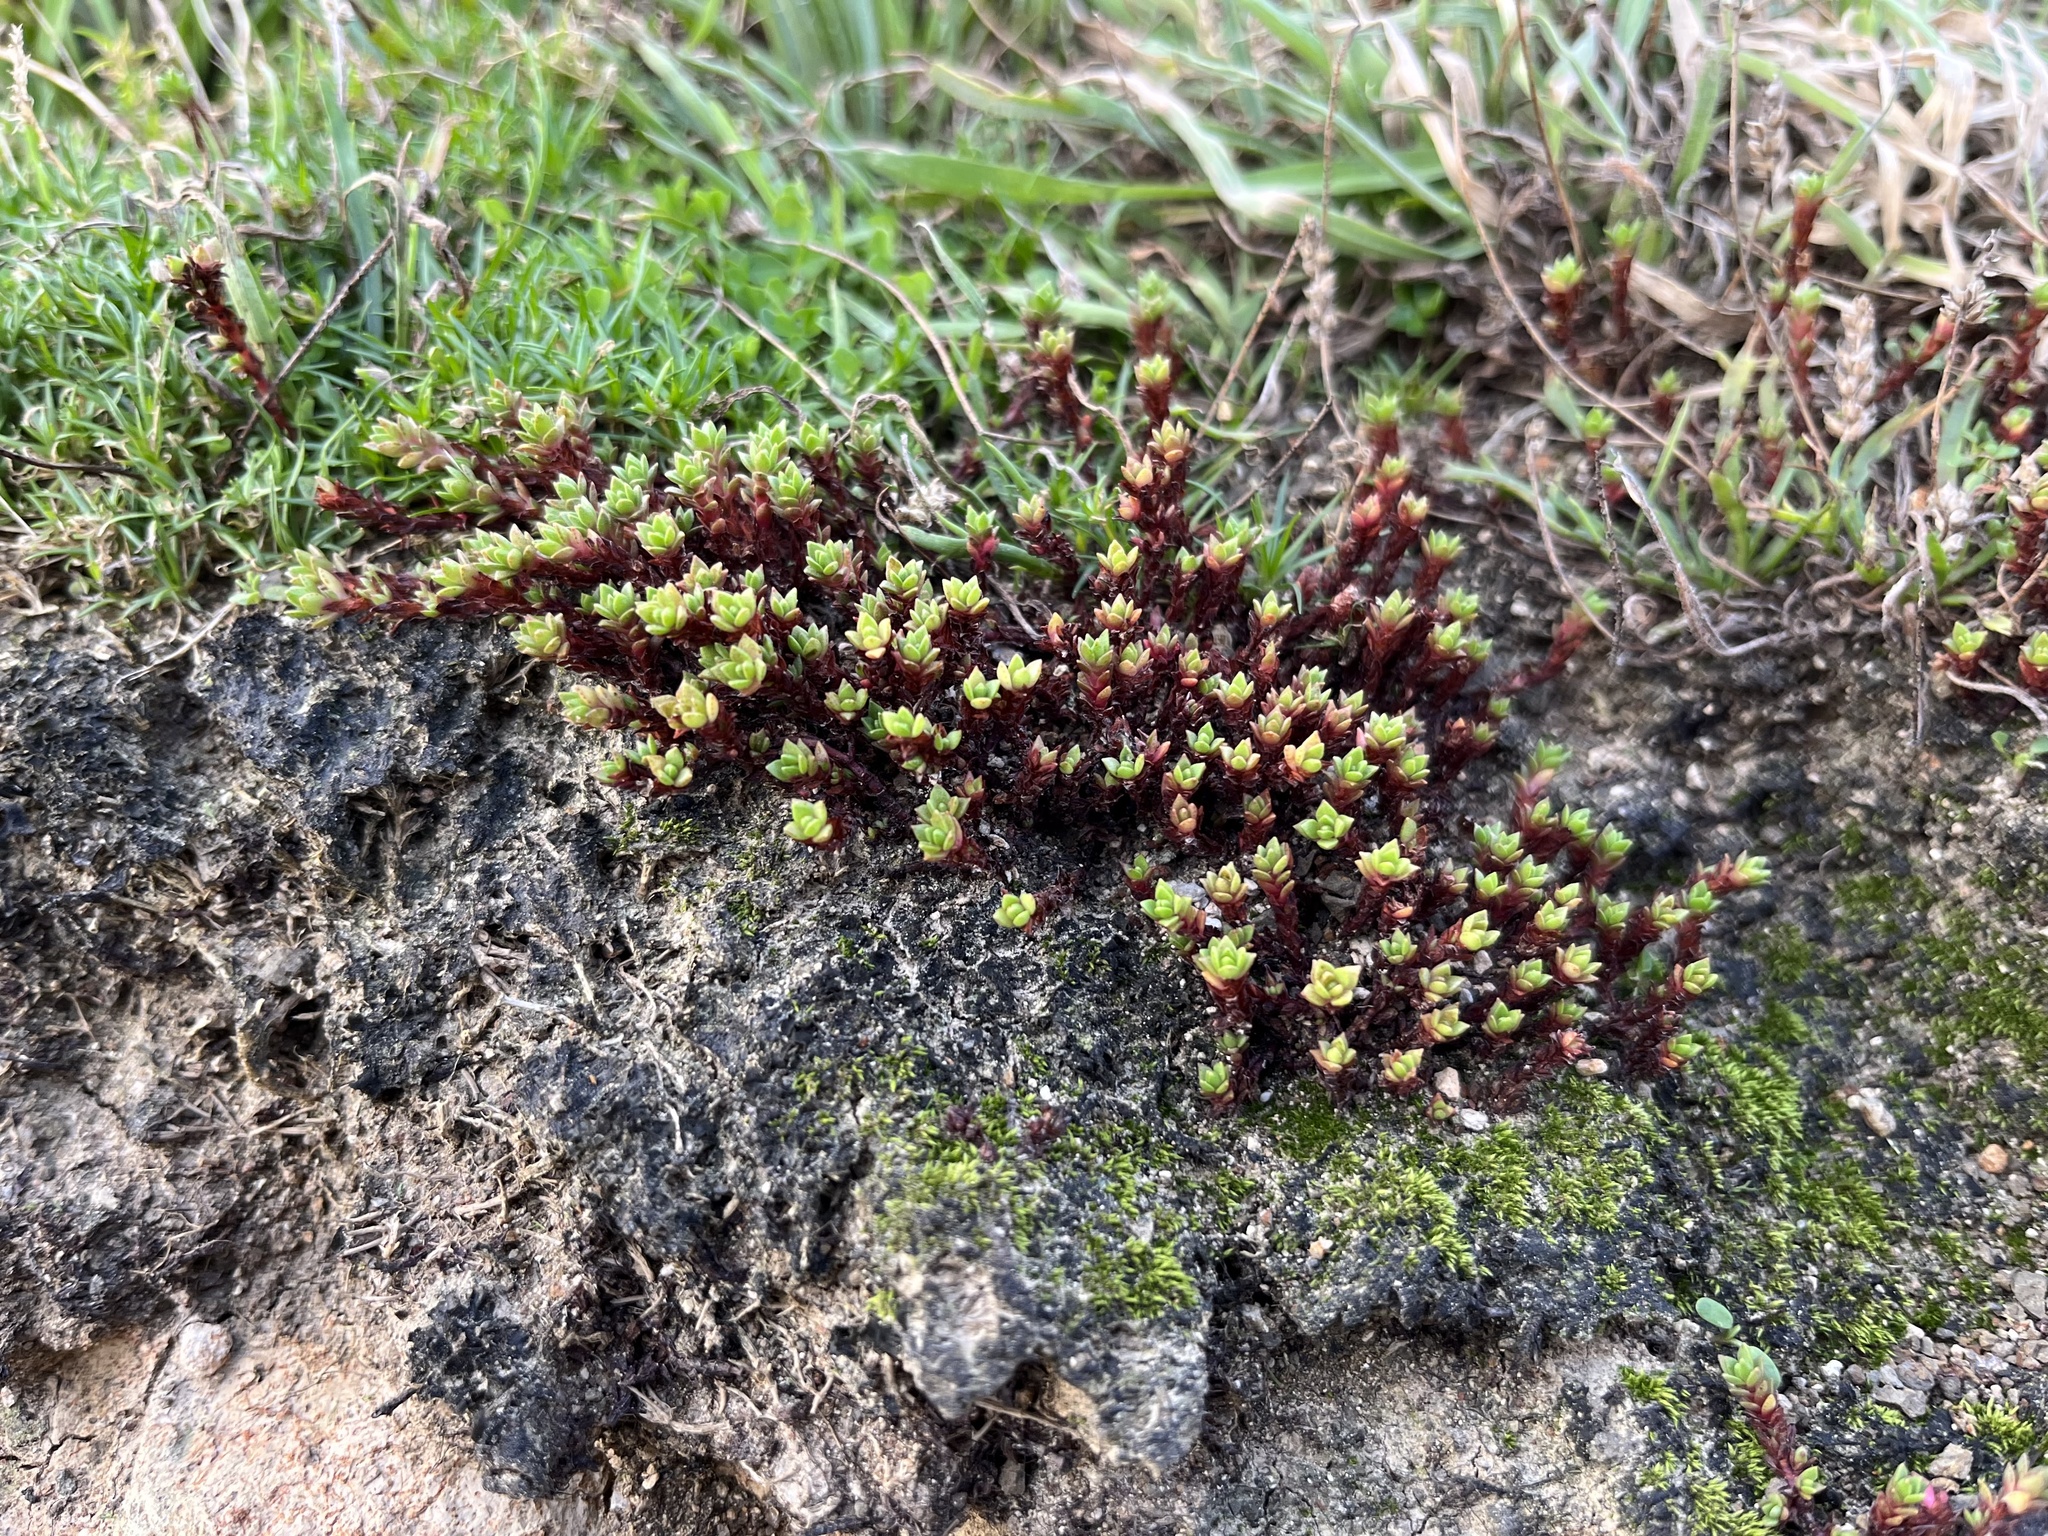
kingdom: Plantae
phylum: Tracheophyta
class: Magnoliopsida
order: Saxifragales
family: Crassulaceae
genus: Crassula
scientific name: Crassula moschata
